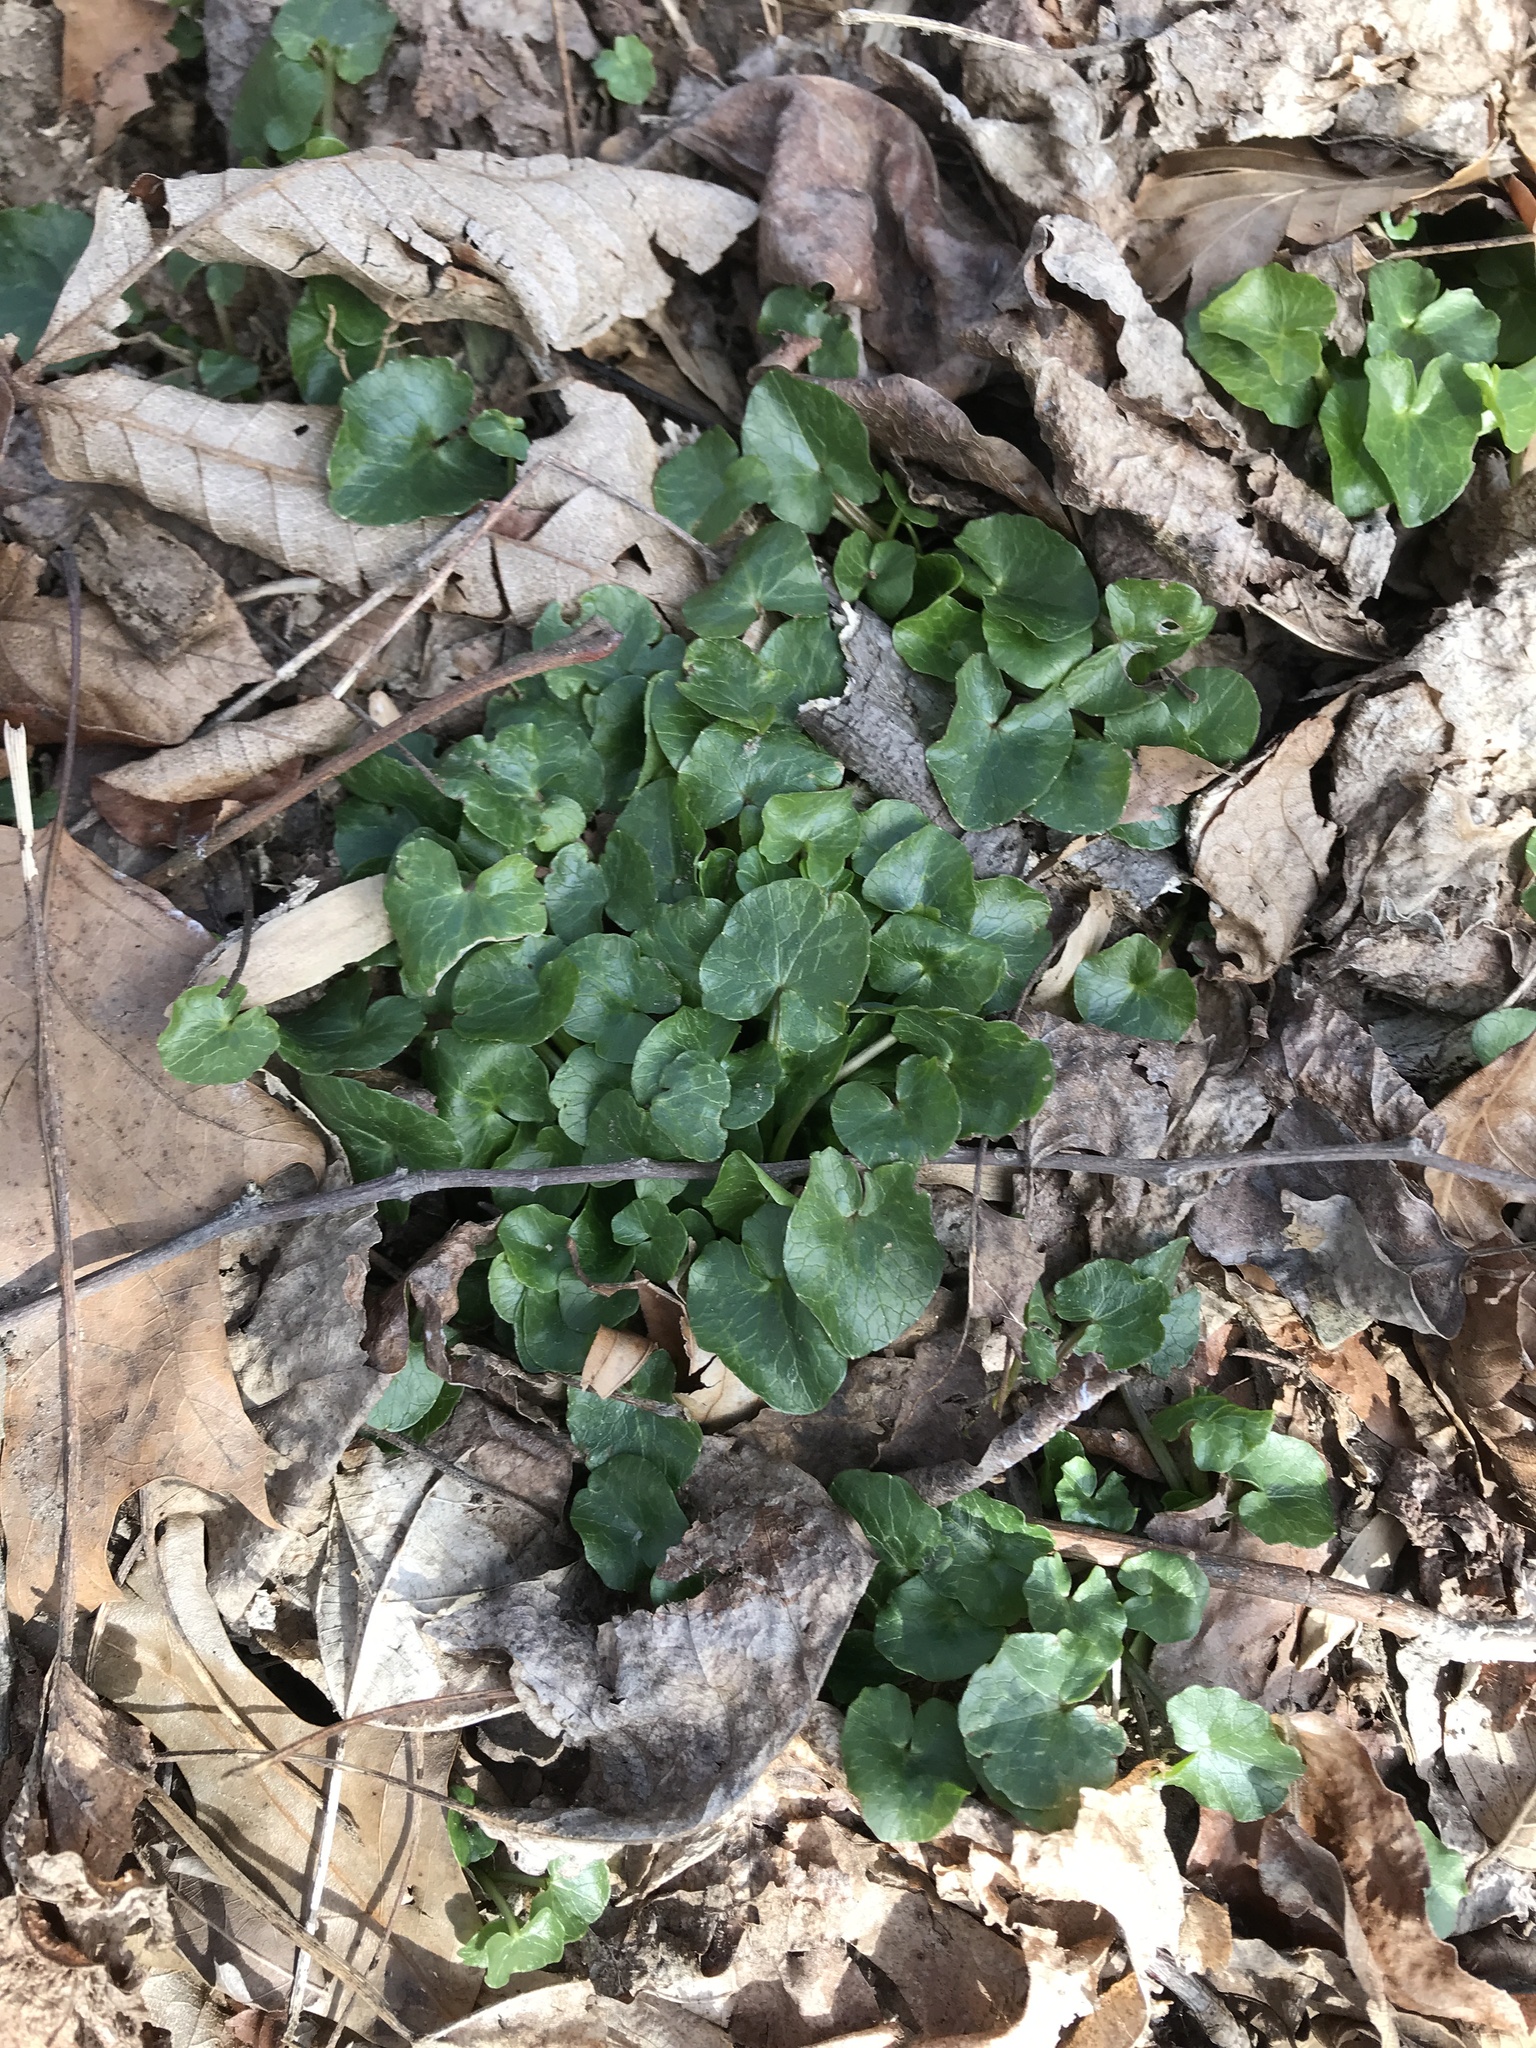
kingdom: Plantae
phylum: Tracheophyta
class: Magnoliopsida
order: Ranunculales
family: Ranunculaceae
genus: Ficaria
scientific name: Ficaria verna
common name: Lesser celandine
